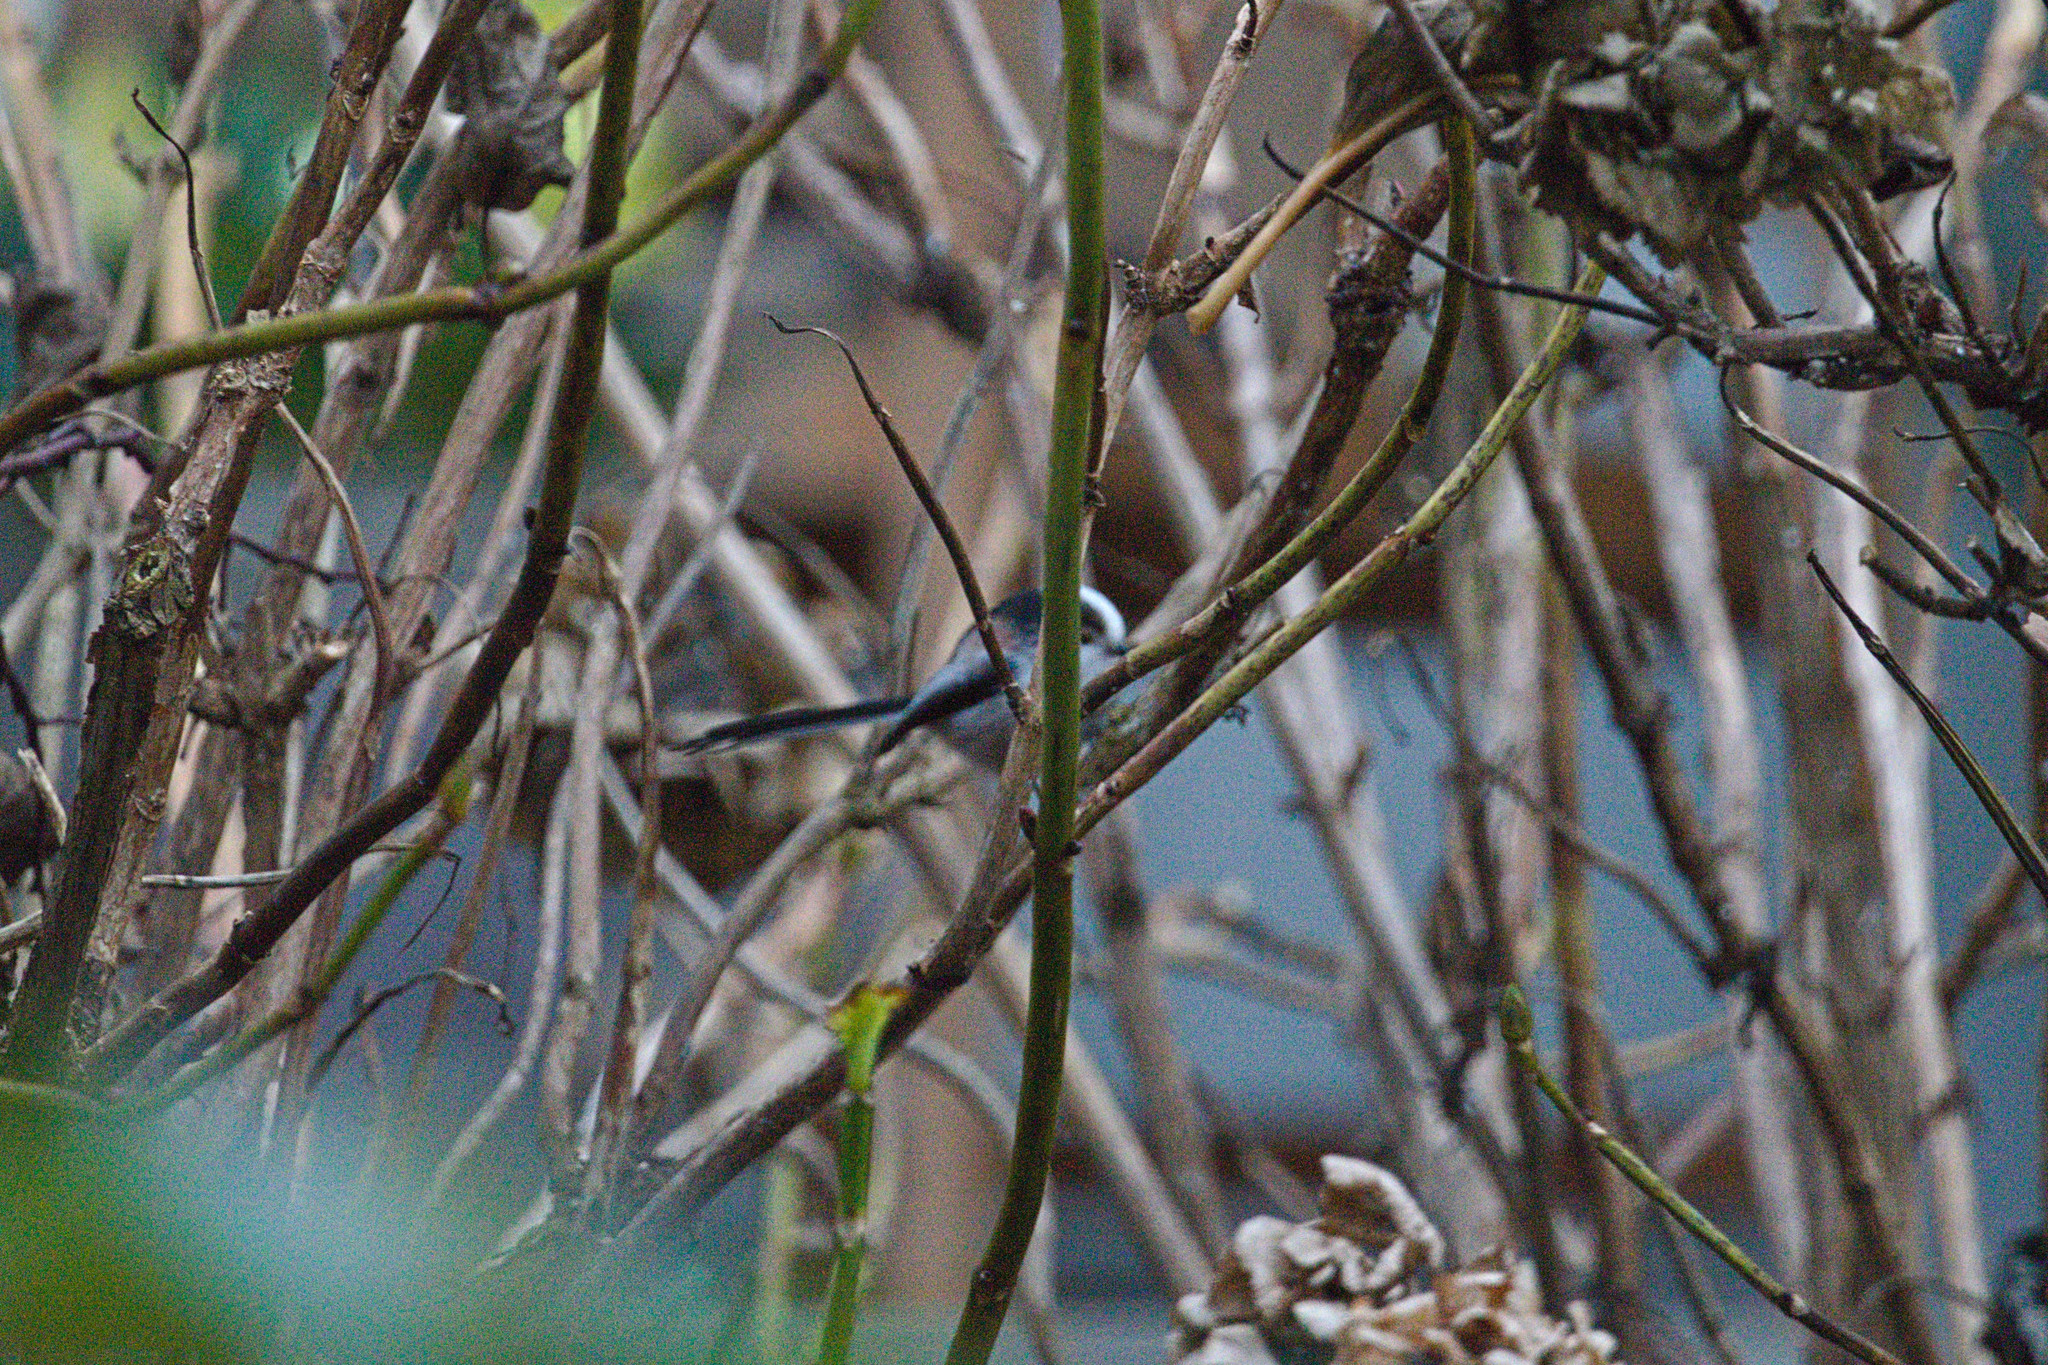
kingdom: Animalia
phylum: Chordata
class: Aves
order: Passeriformes
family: Aegithalidae
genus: Aegithalos
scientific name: Aegithalos caudatus
